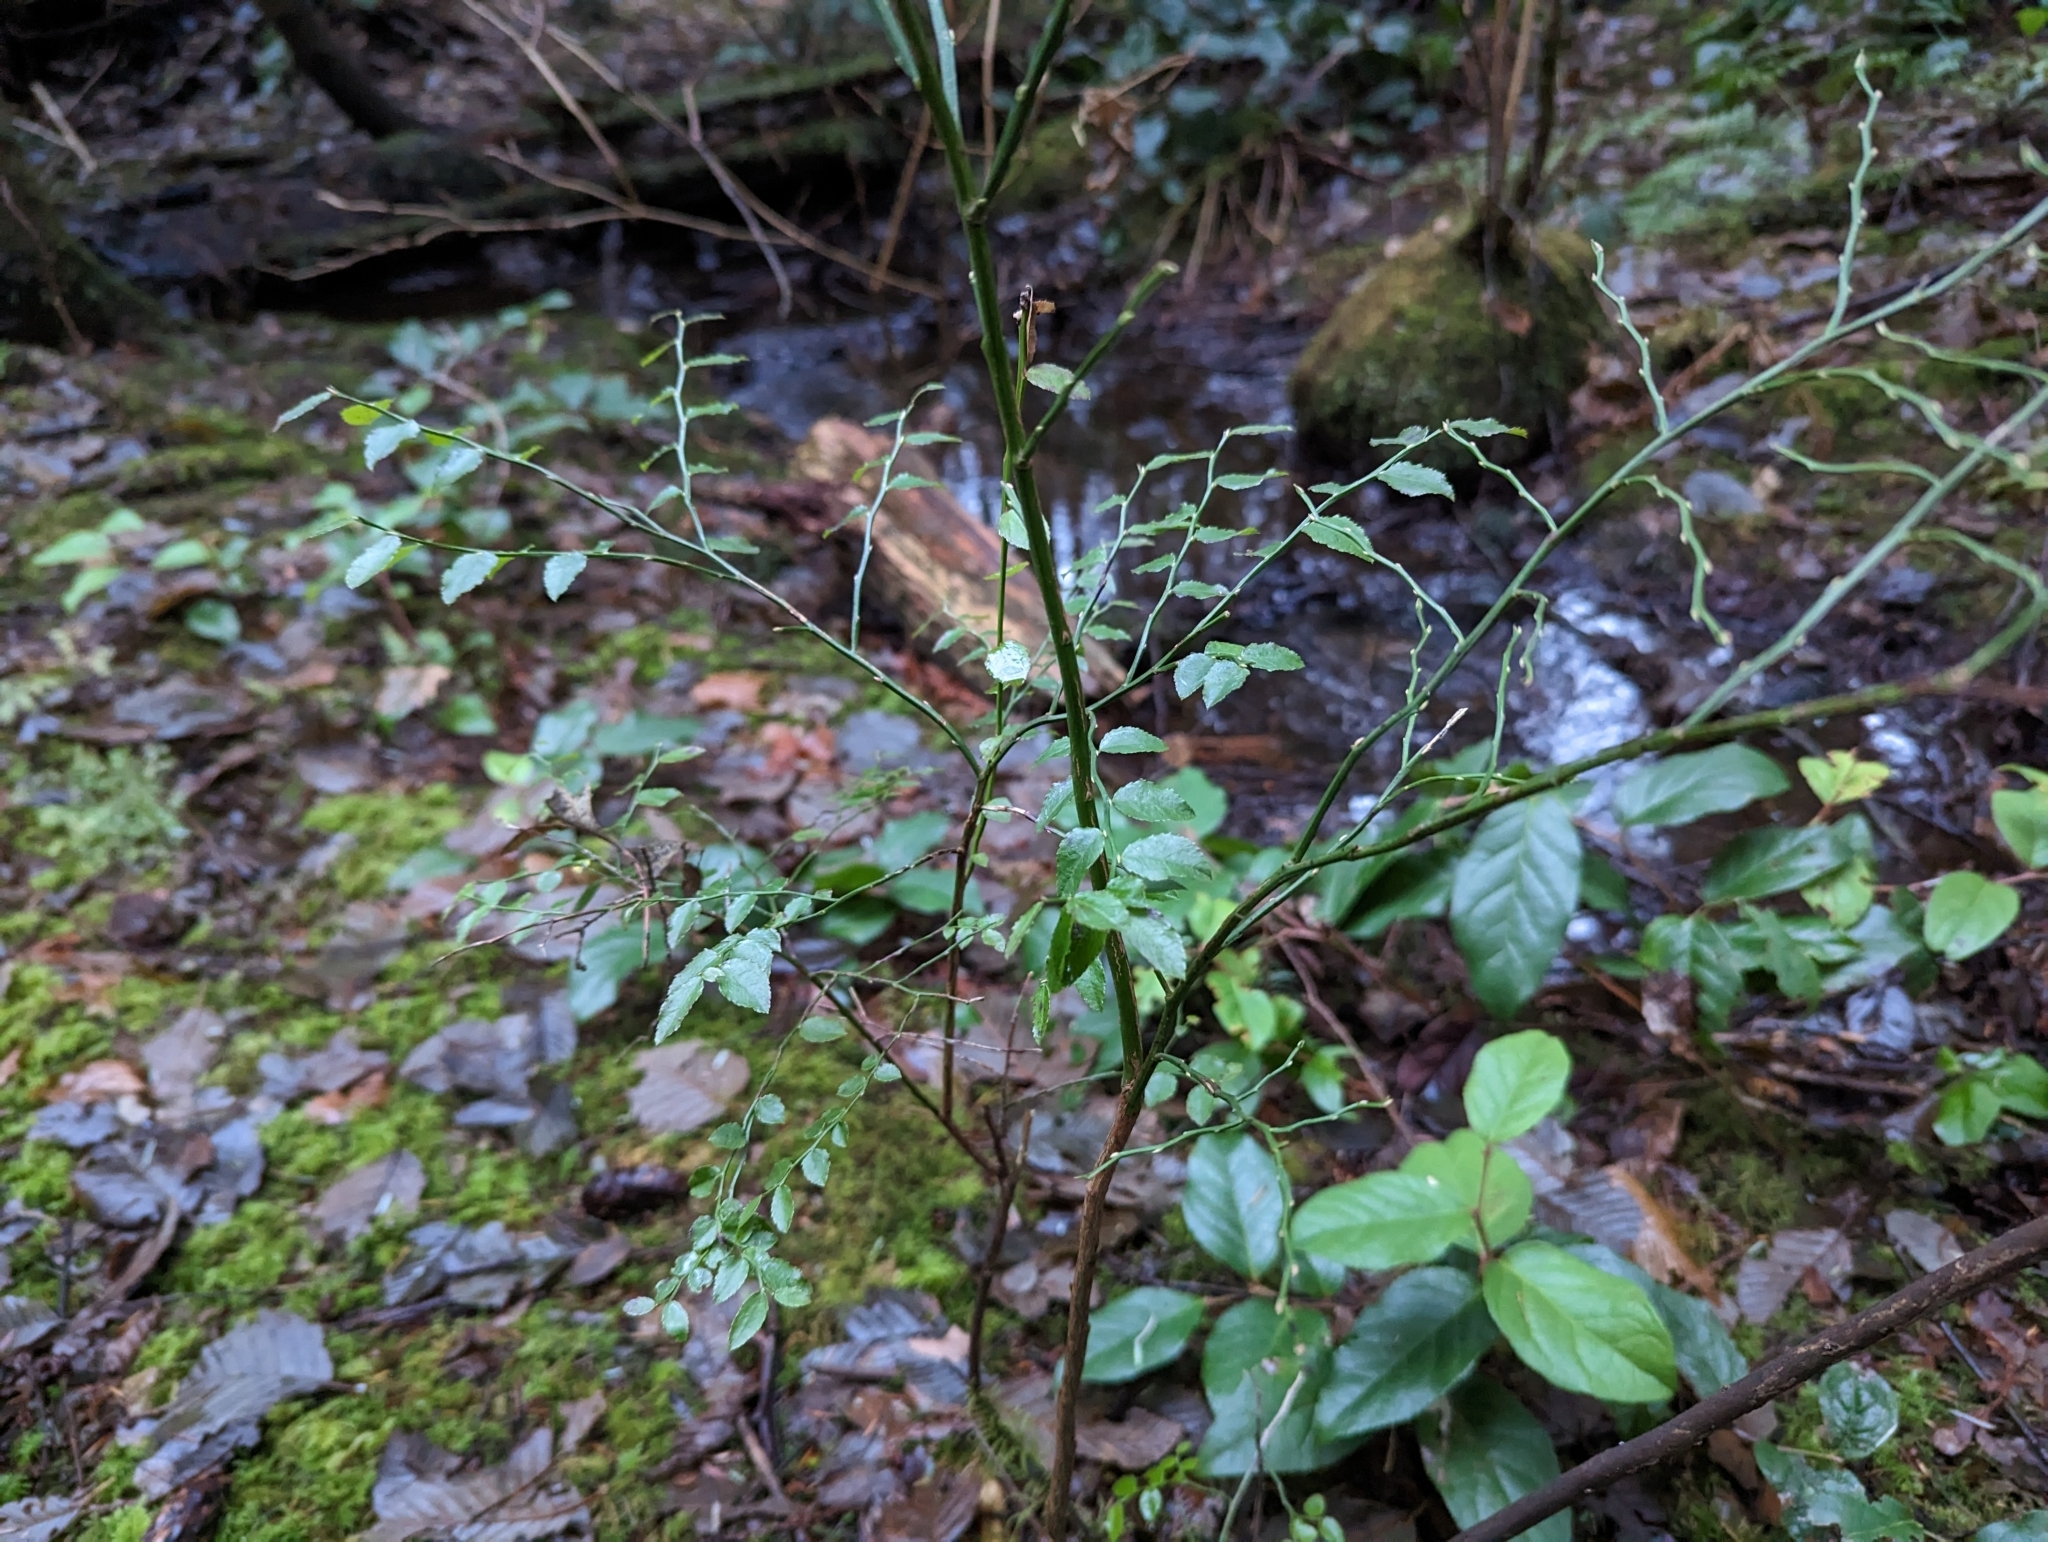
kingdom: Plantae
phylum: Tracheophyta
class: Magnoliopsida
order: Ericales
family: Ericaceae
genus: Vaccinium
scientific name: Vaccinium parvifolium
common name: Red-huckleberry
